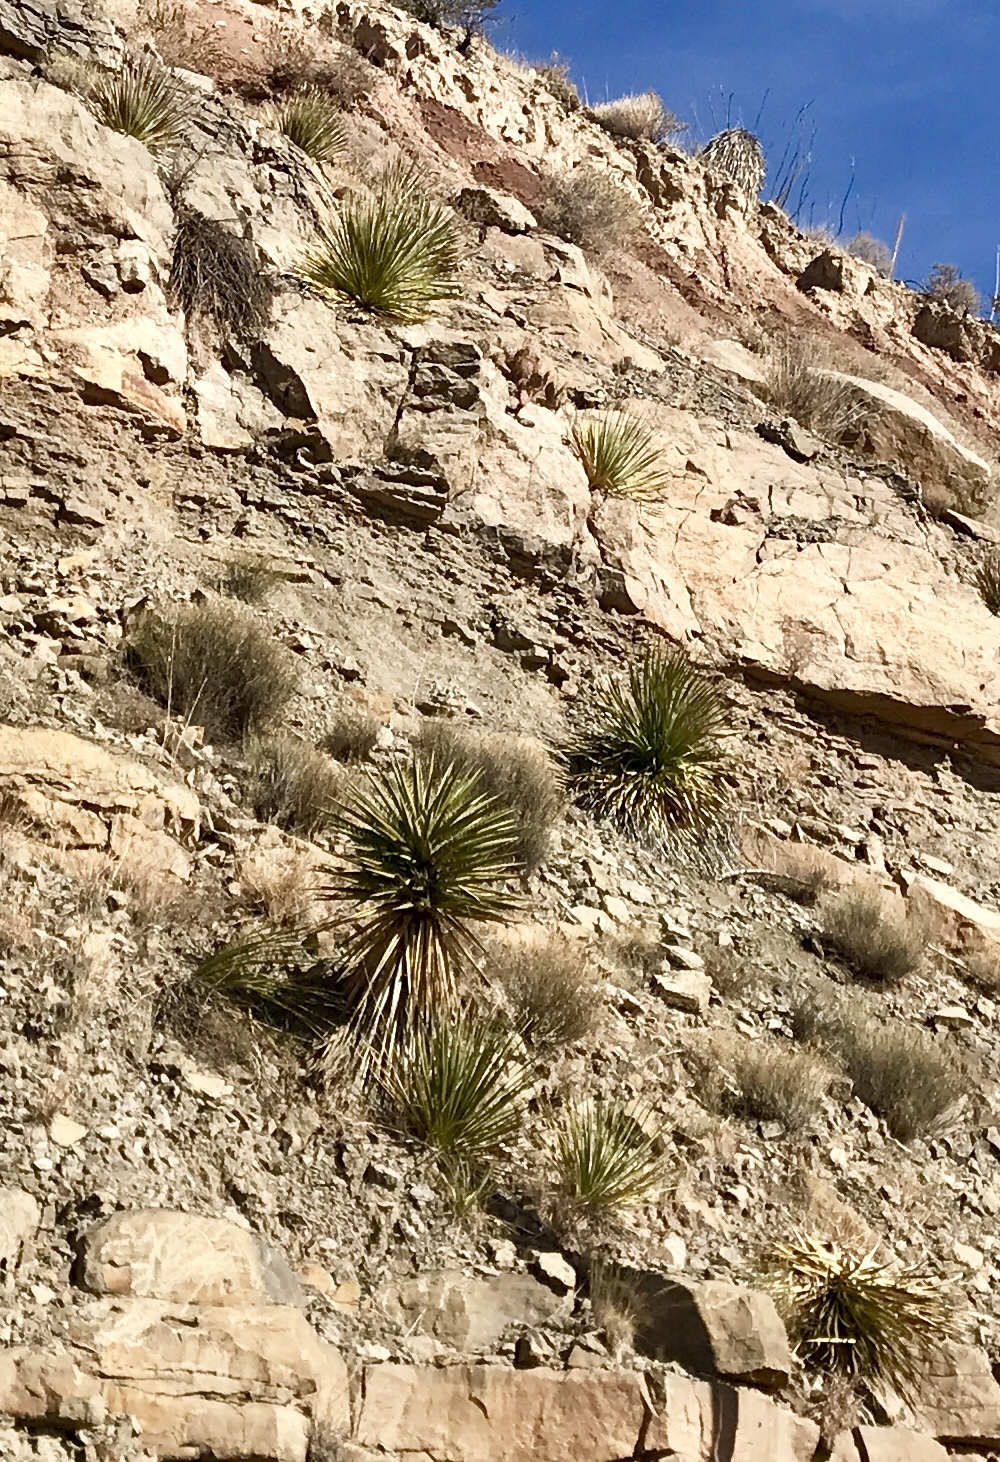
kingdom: Plantae
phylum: Tracheophyta
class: Liliopsida
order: Asparagales
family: Asparagaceae
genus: Yucca
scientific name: Yucca treculiana
